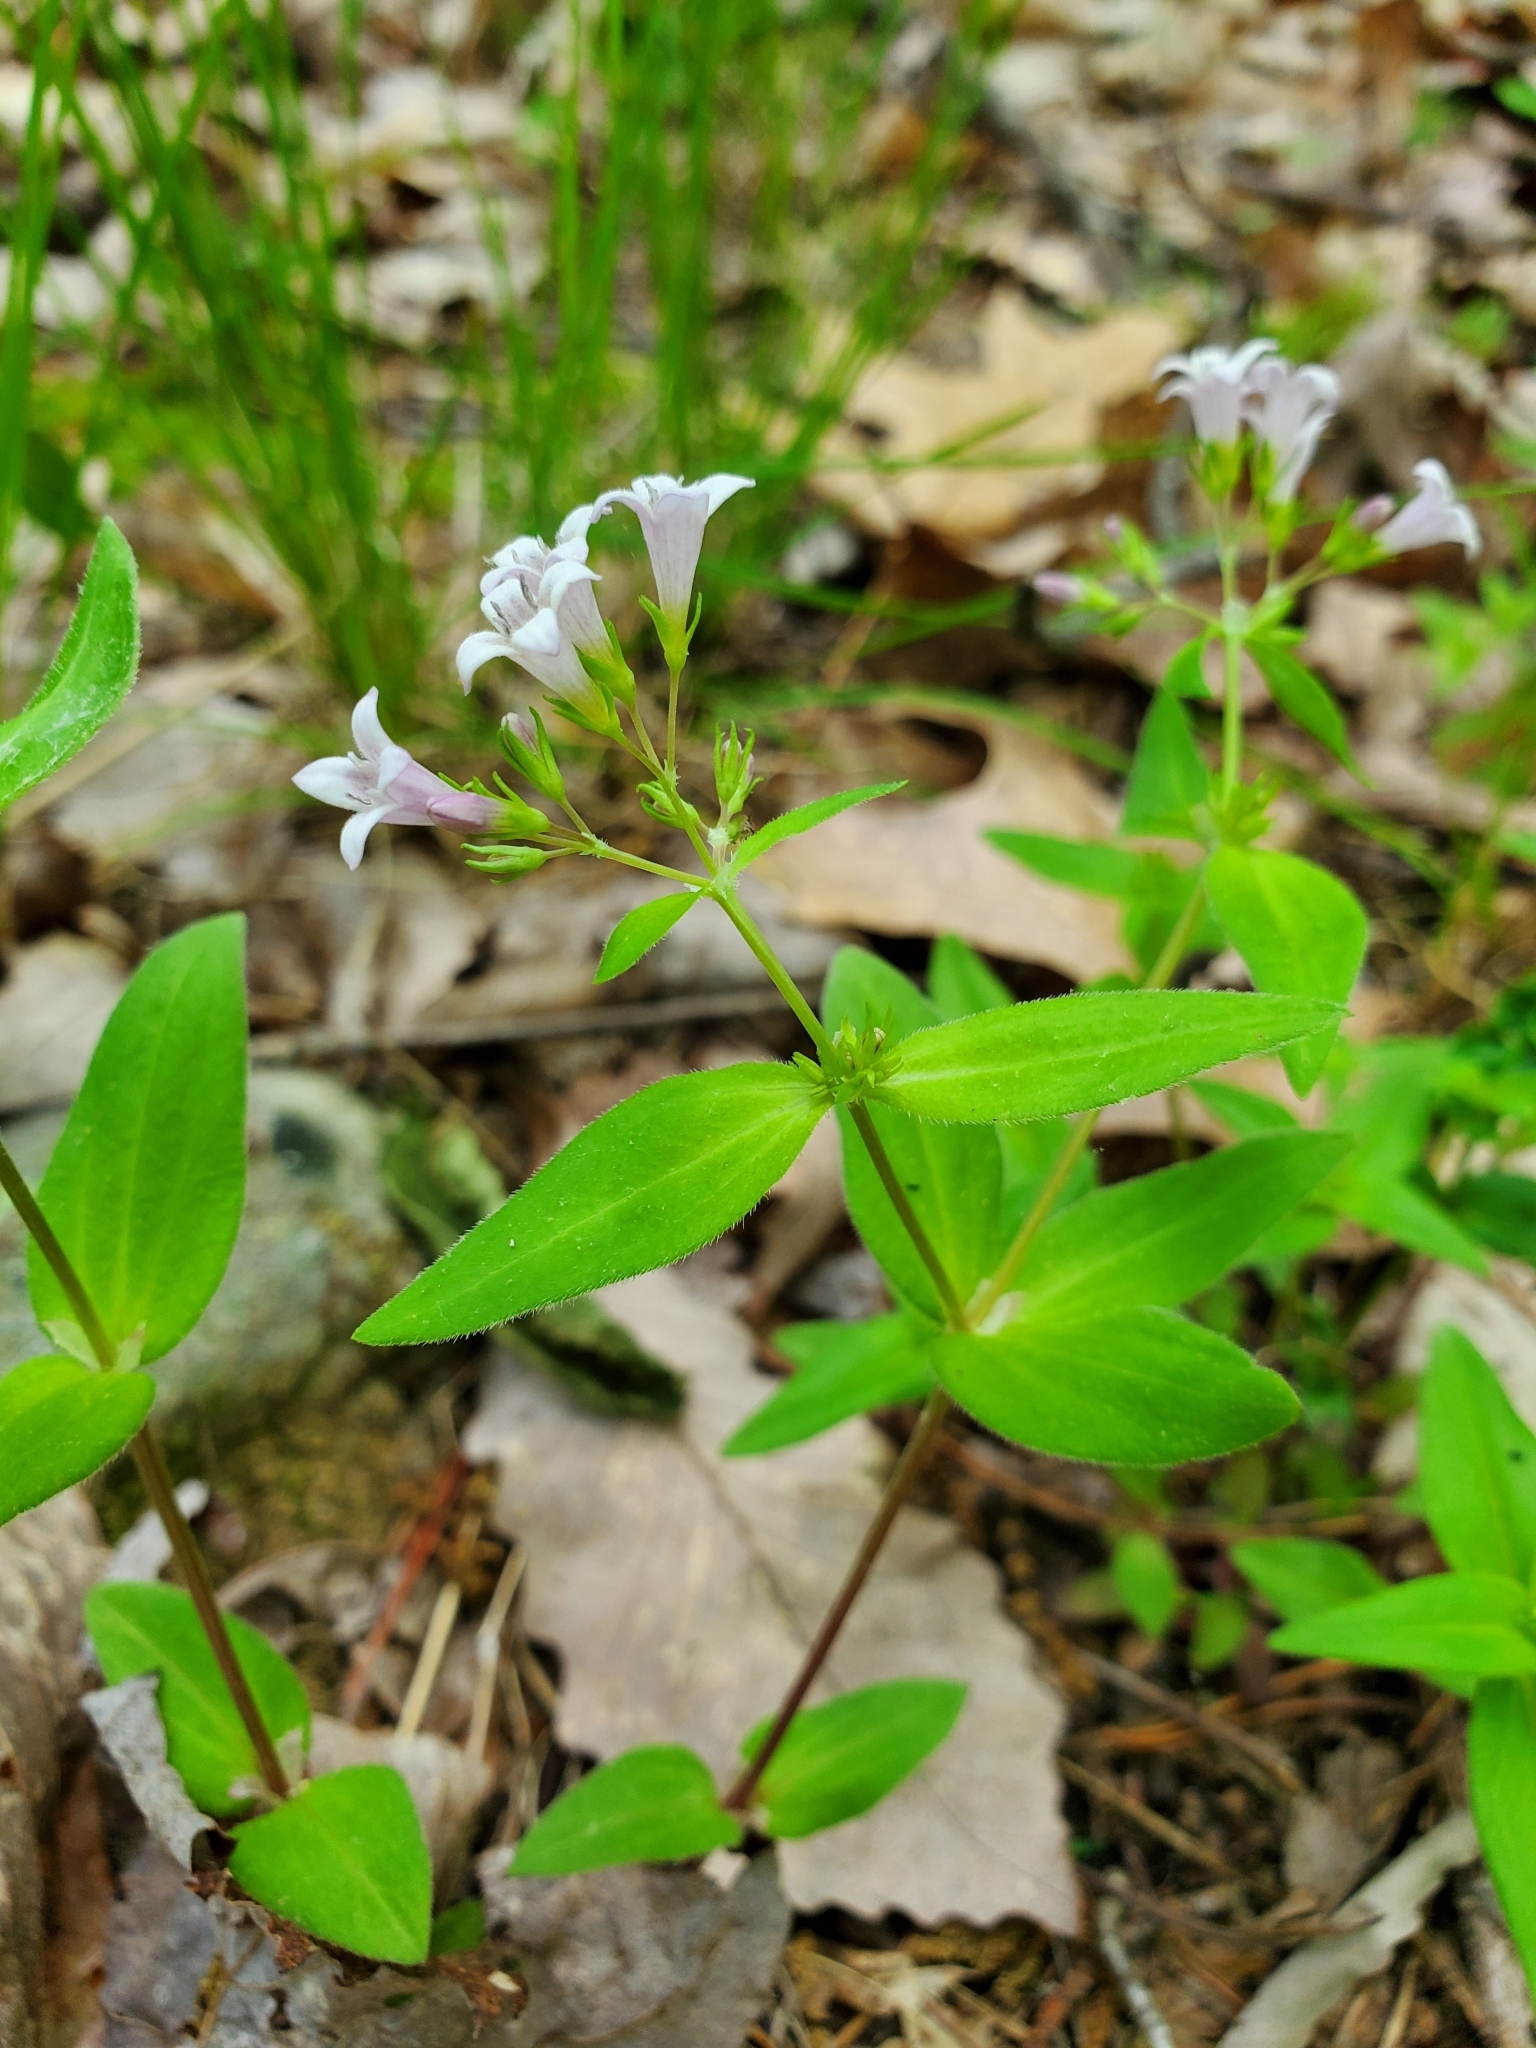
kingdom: Plantae
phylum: Tracheophyta
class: Magnoliopsida
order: Gentianales
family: Rubiaceae
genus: Houstonia
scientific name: Houstonia purpurea
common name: Summer bluet
